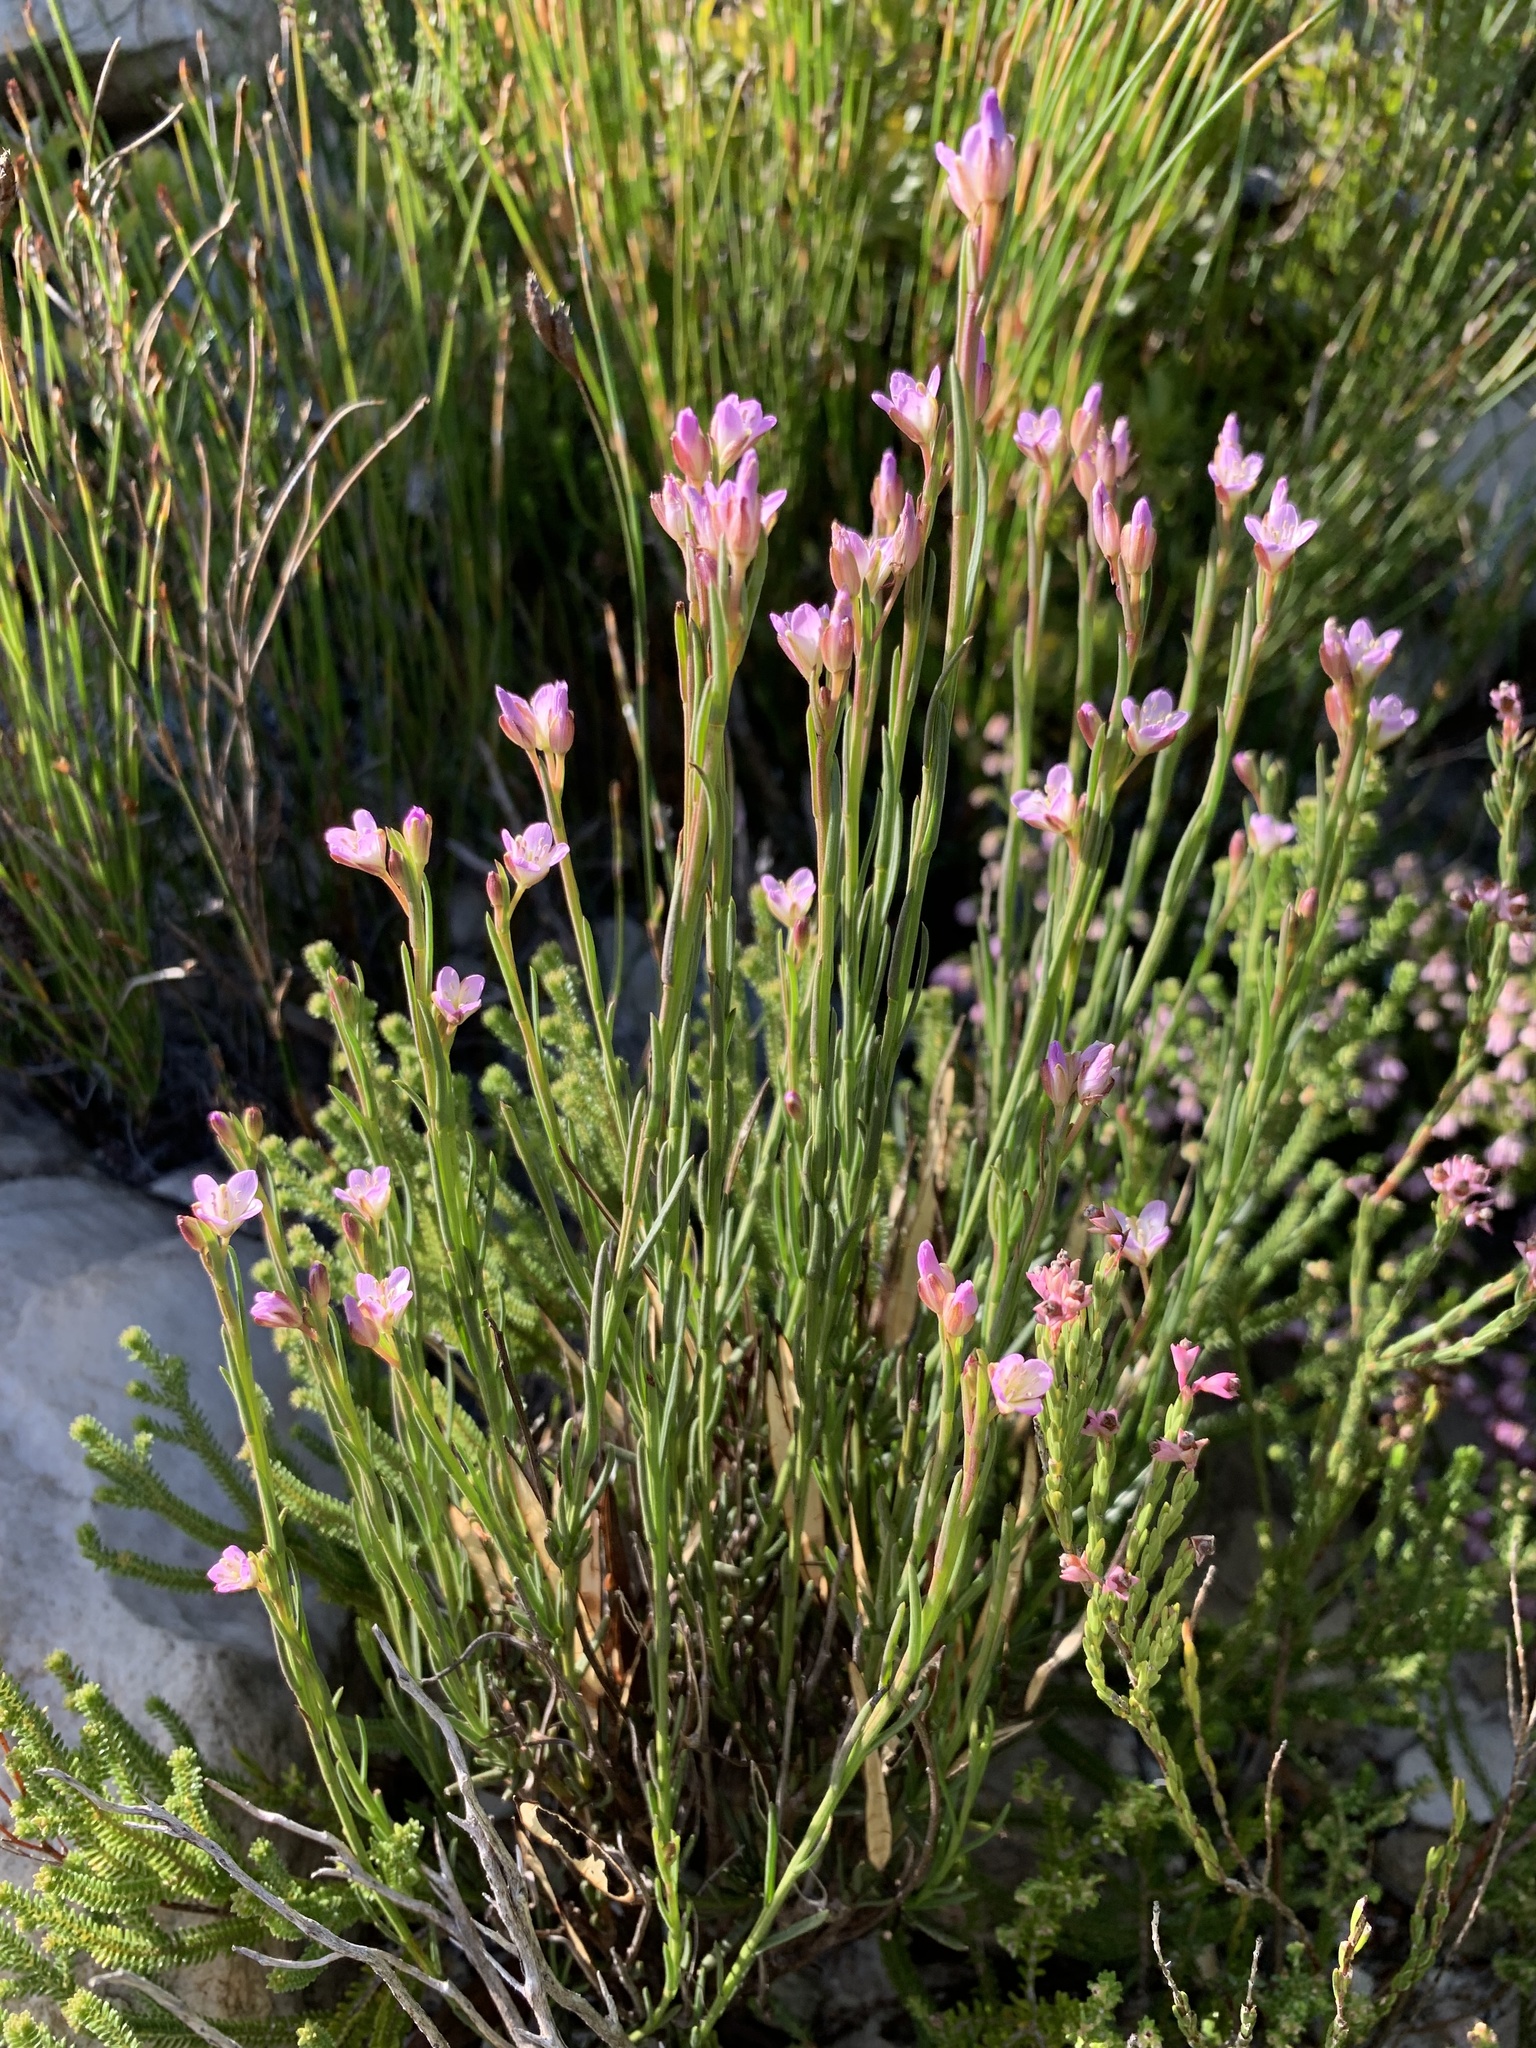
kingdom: Plantae
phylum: Tracheophyta
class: Magnoliopsida
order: Malvales
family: Thymelaeaceae
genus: Lachnaea
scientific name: Lachnaea grandiflora
